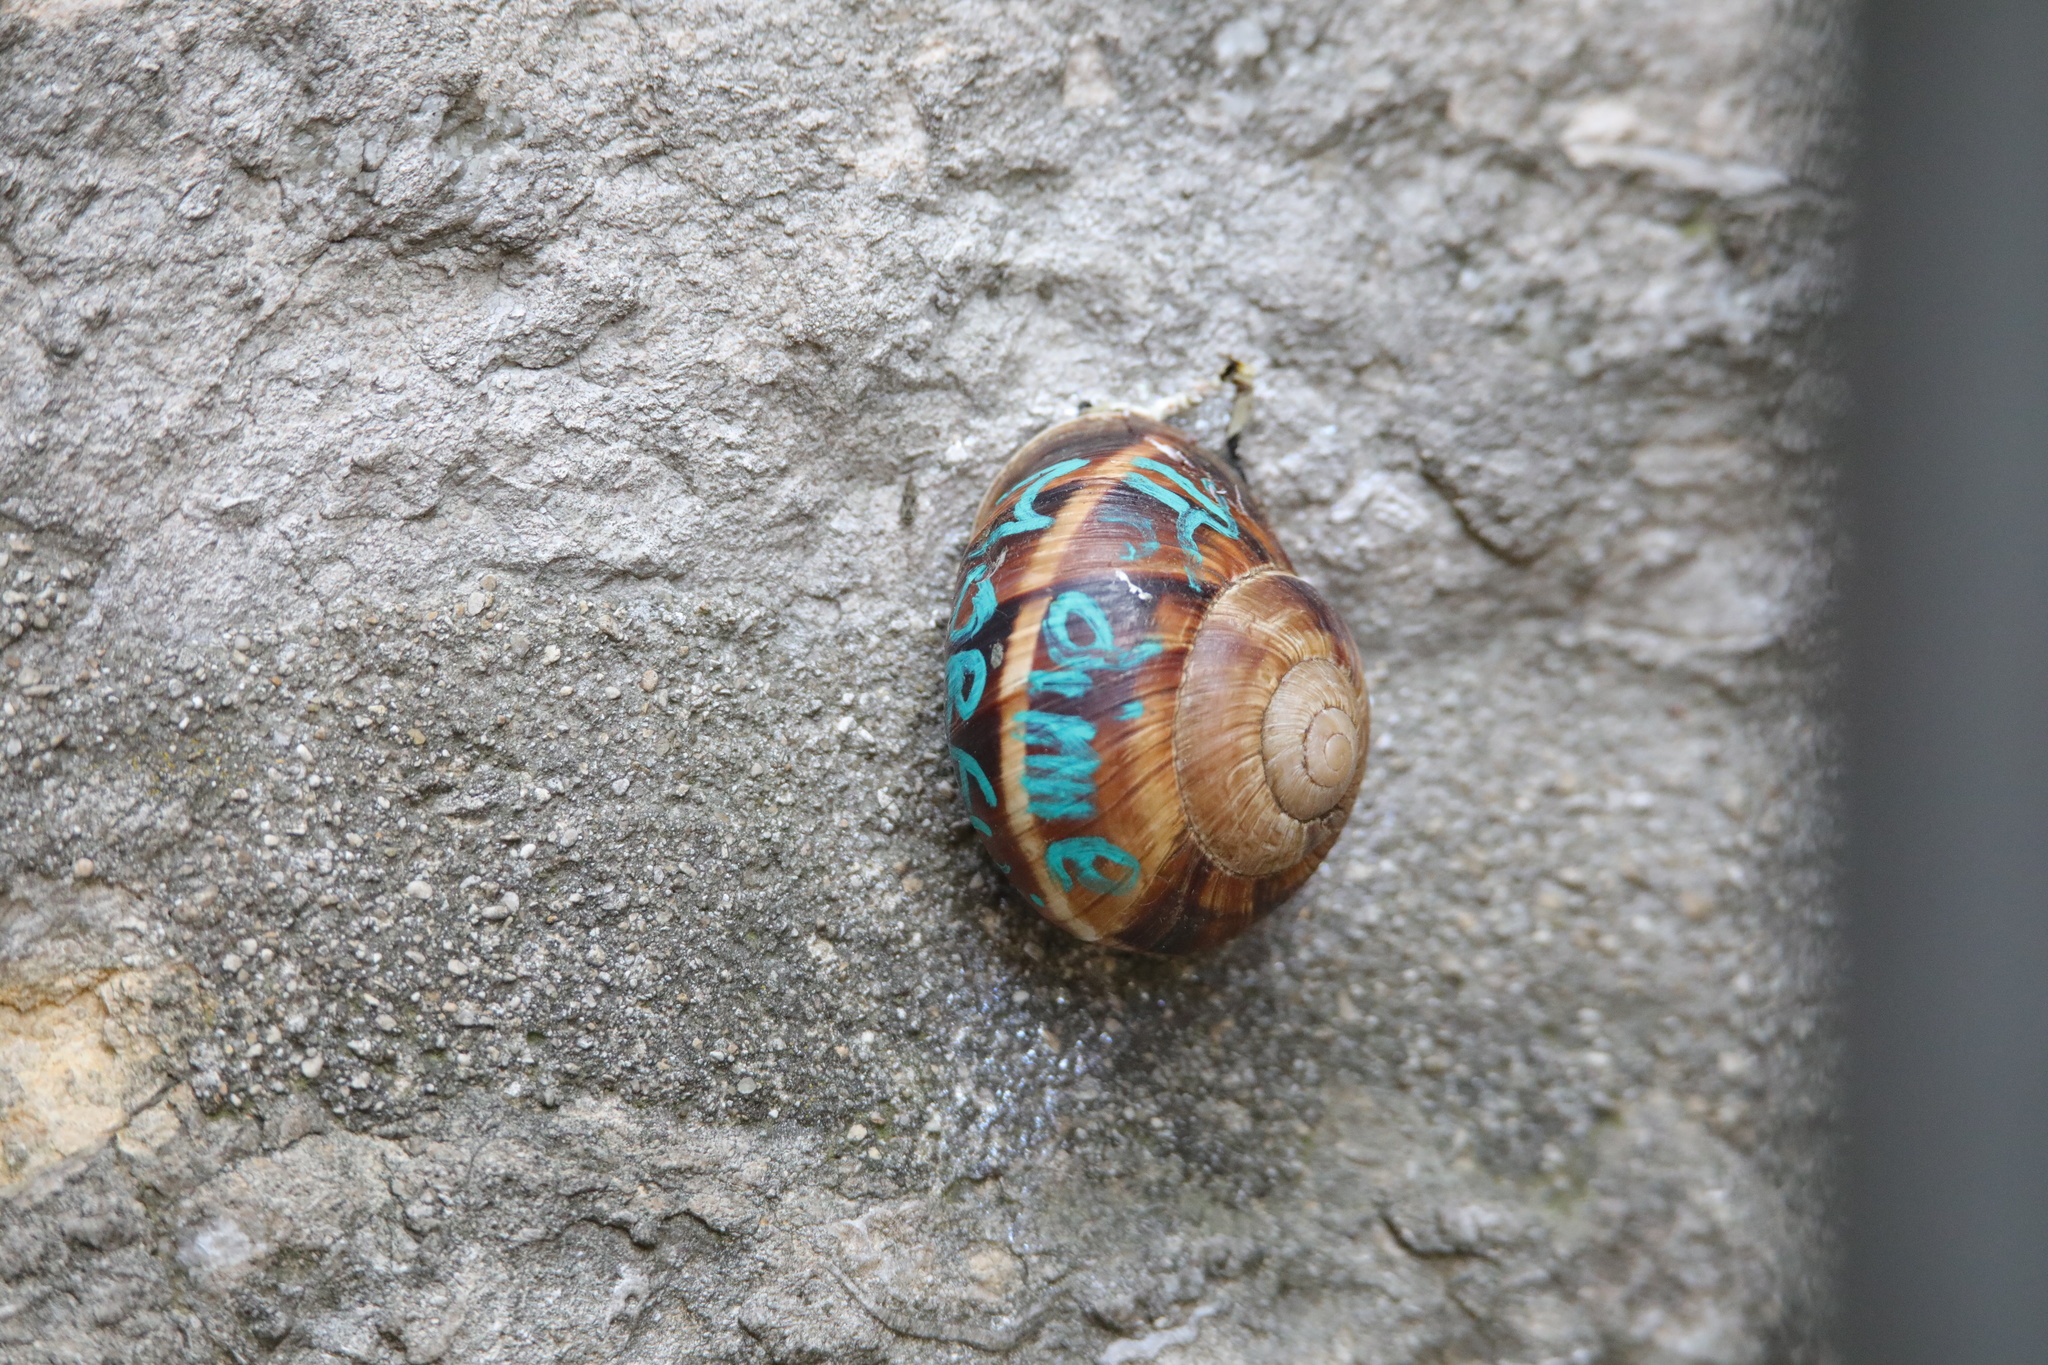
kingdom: Animalia
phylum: Mollusca
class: Gastropoda
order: Stylommatophora
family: Helicidae
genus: Helix
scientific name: Helix lucorum
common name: Turkish snail
